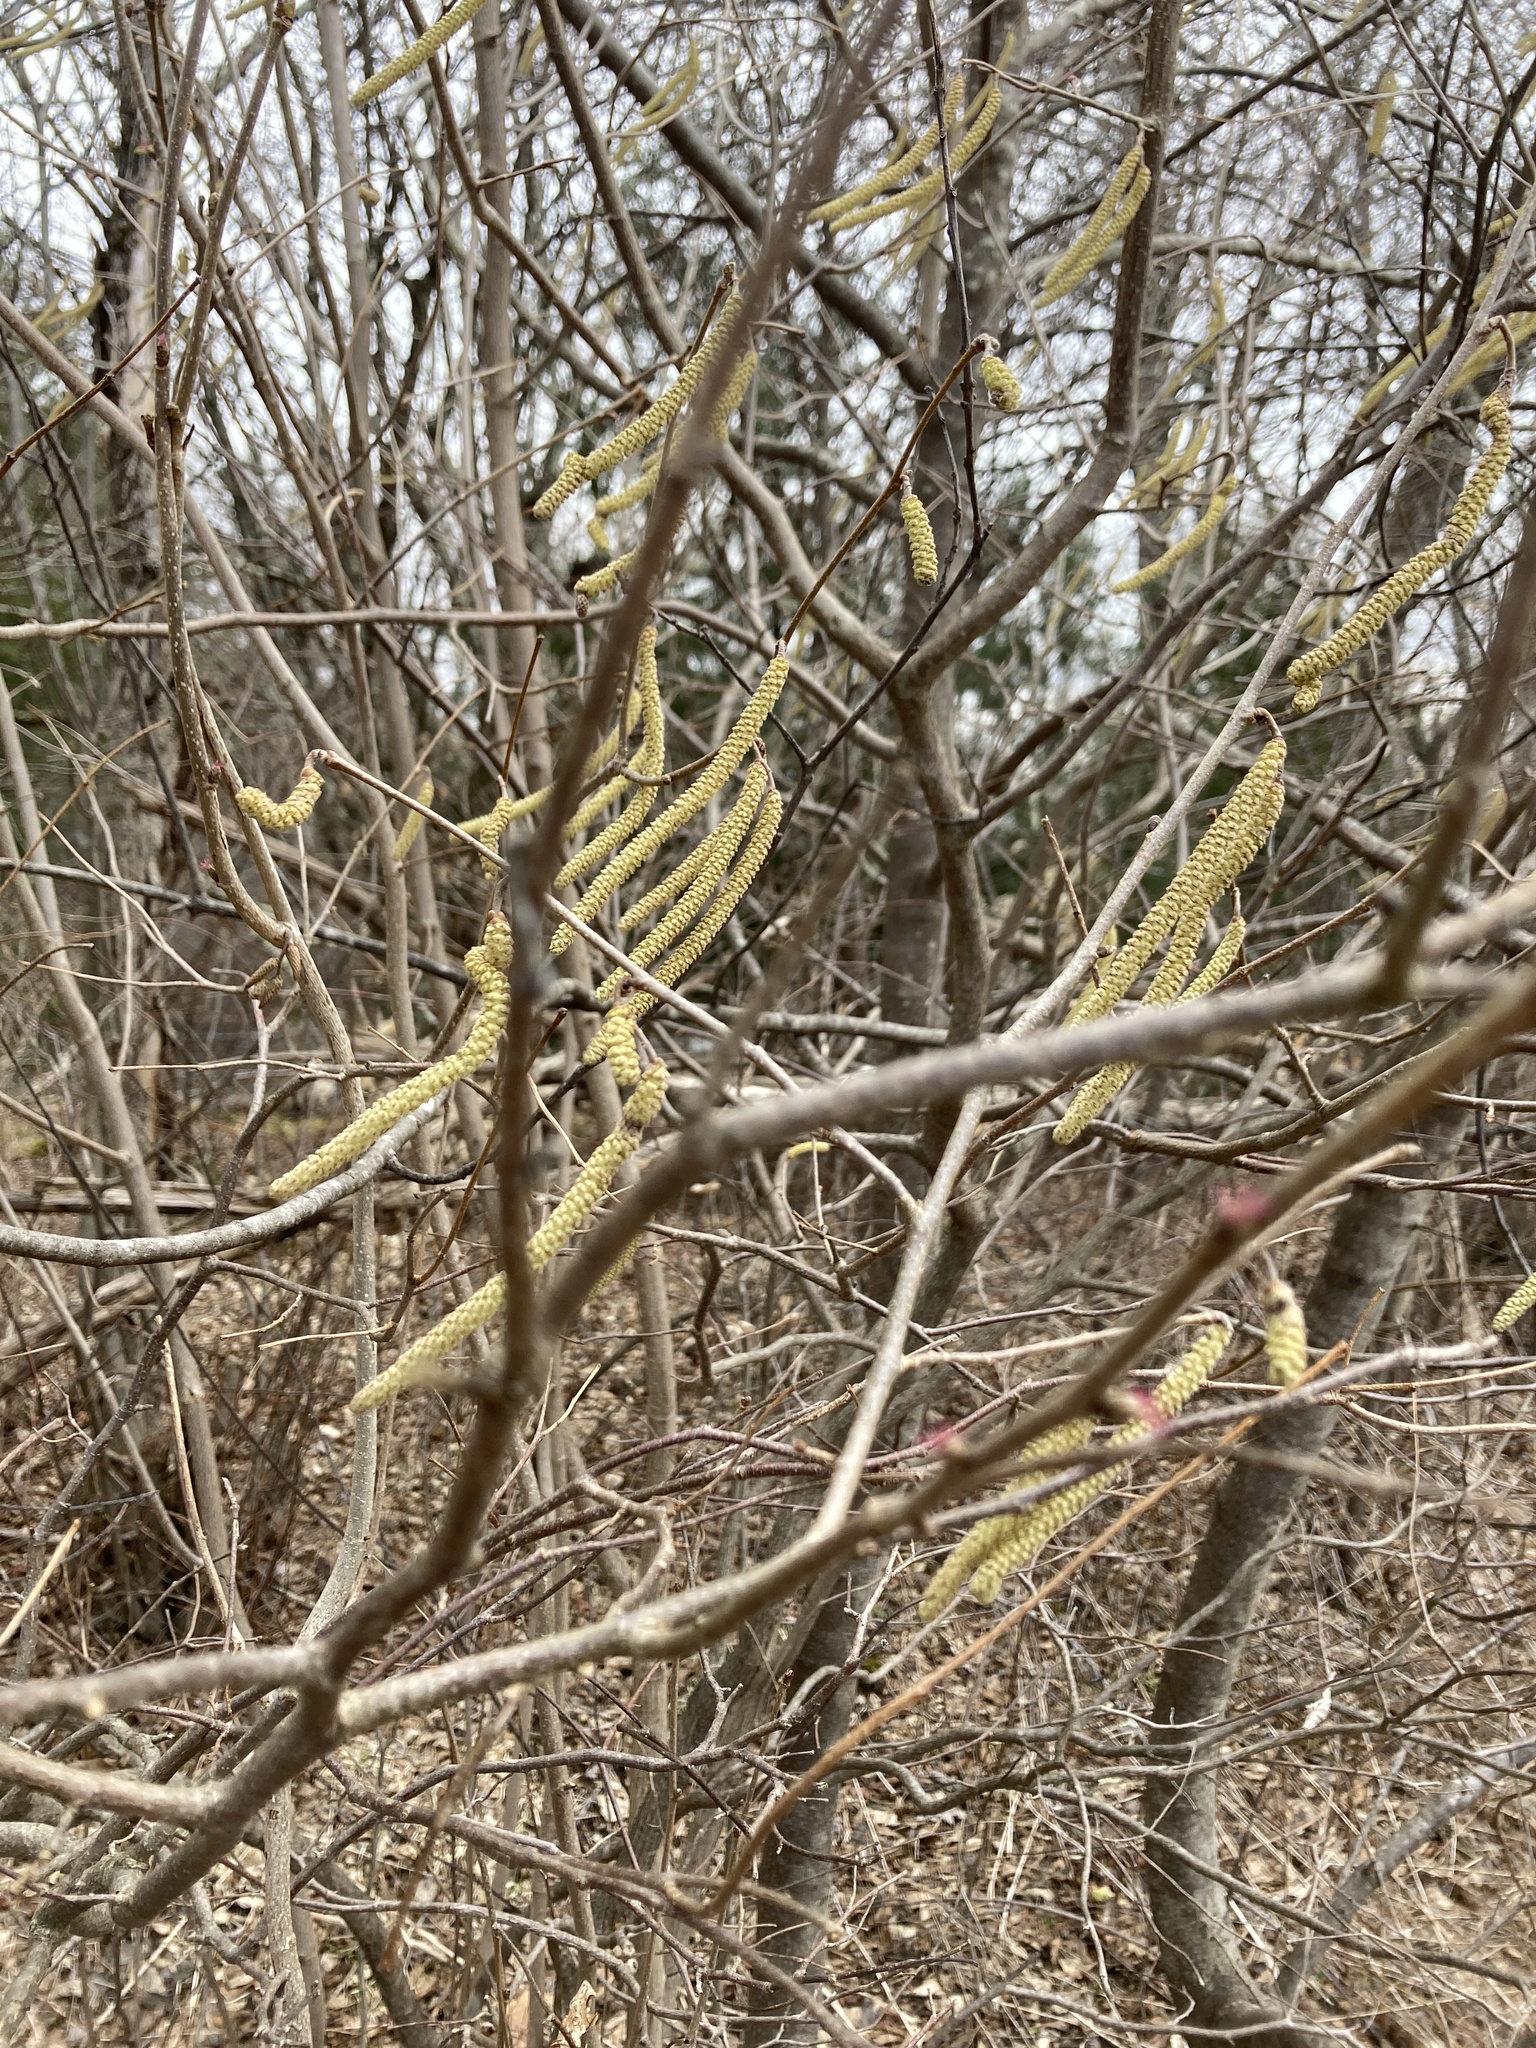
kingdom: Plantae
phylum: Tracheophyta
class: Magnoliopsida
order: Fagales
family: Betulaceae
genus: Corylus
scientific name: Corylus americana
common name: American hazel
